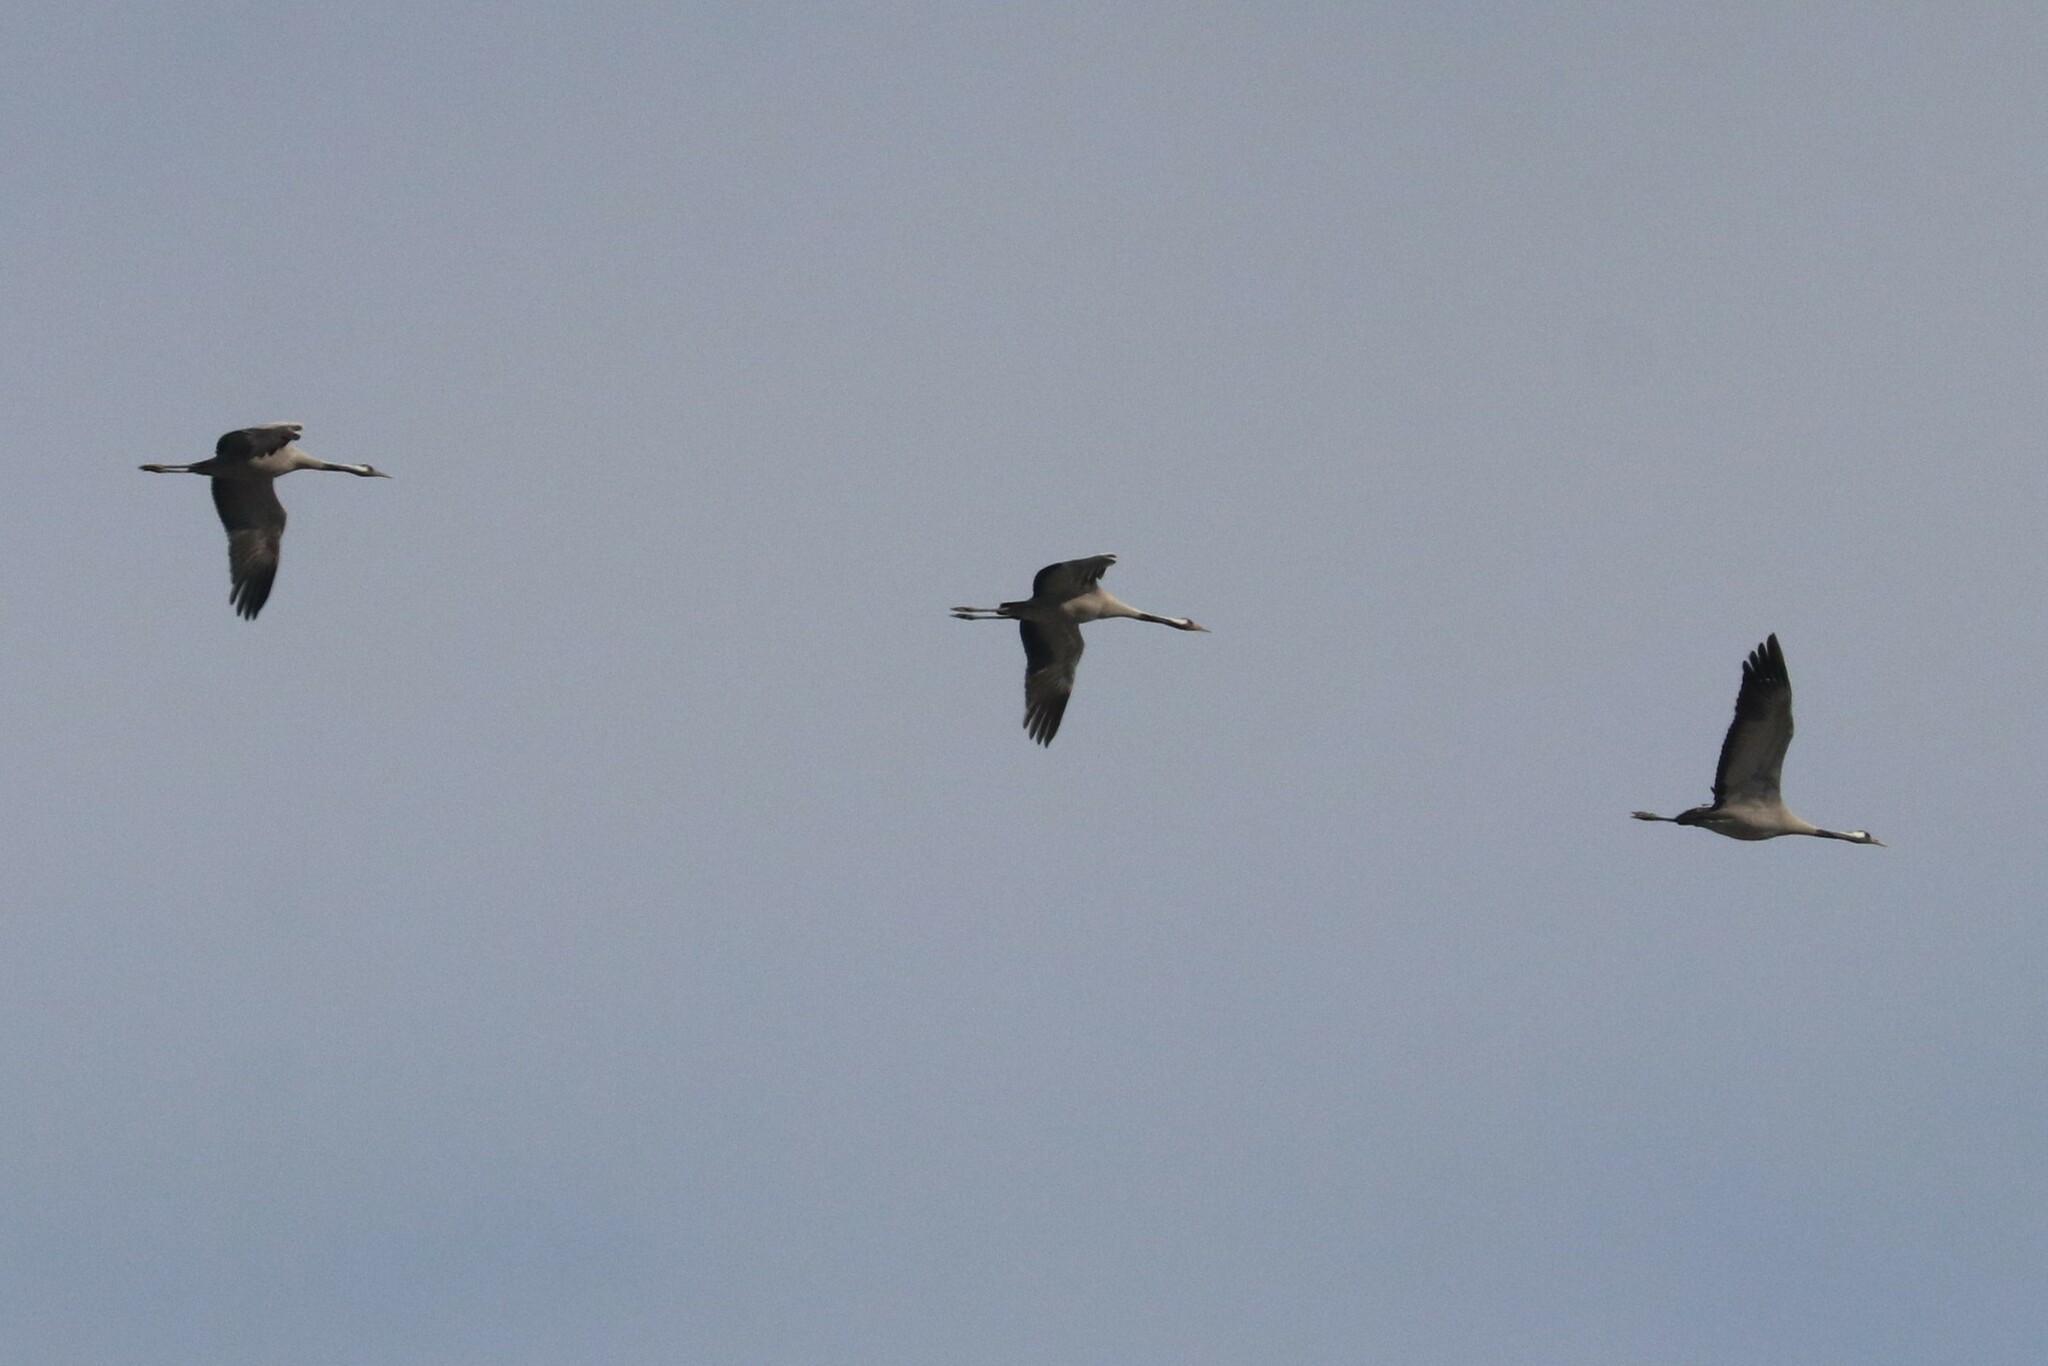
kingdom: Animalia
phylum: Chordata
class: Aves
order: Gruiformes
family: Gruidae
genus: Grus
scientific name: Grus grus
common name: Common crane
